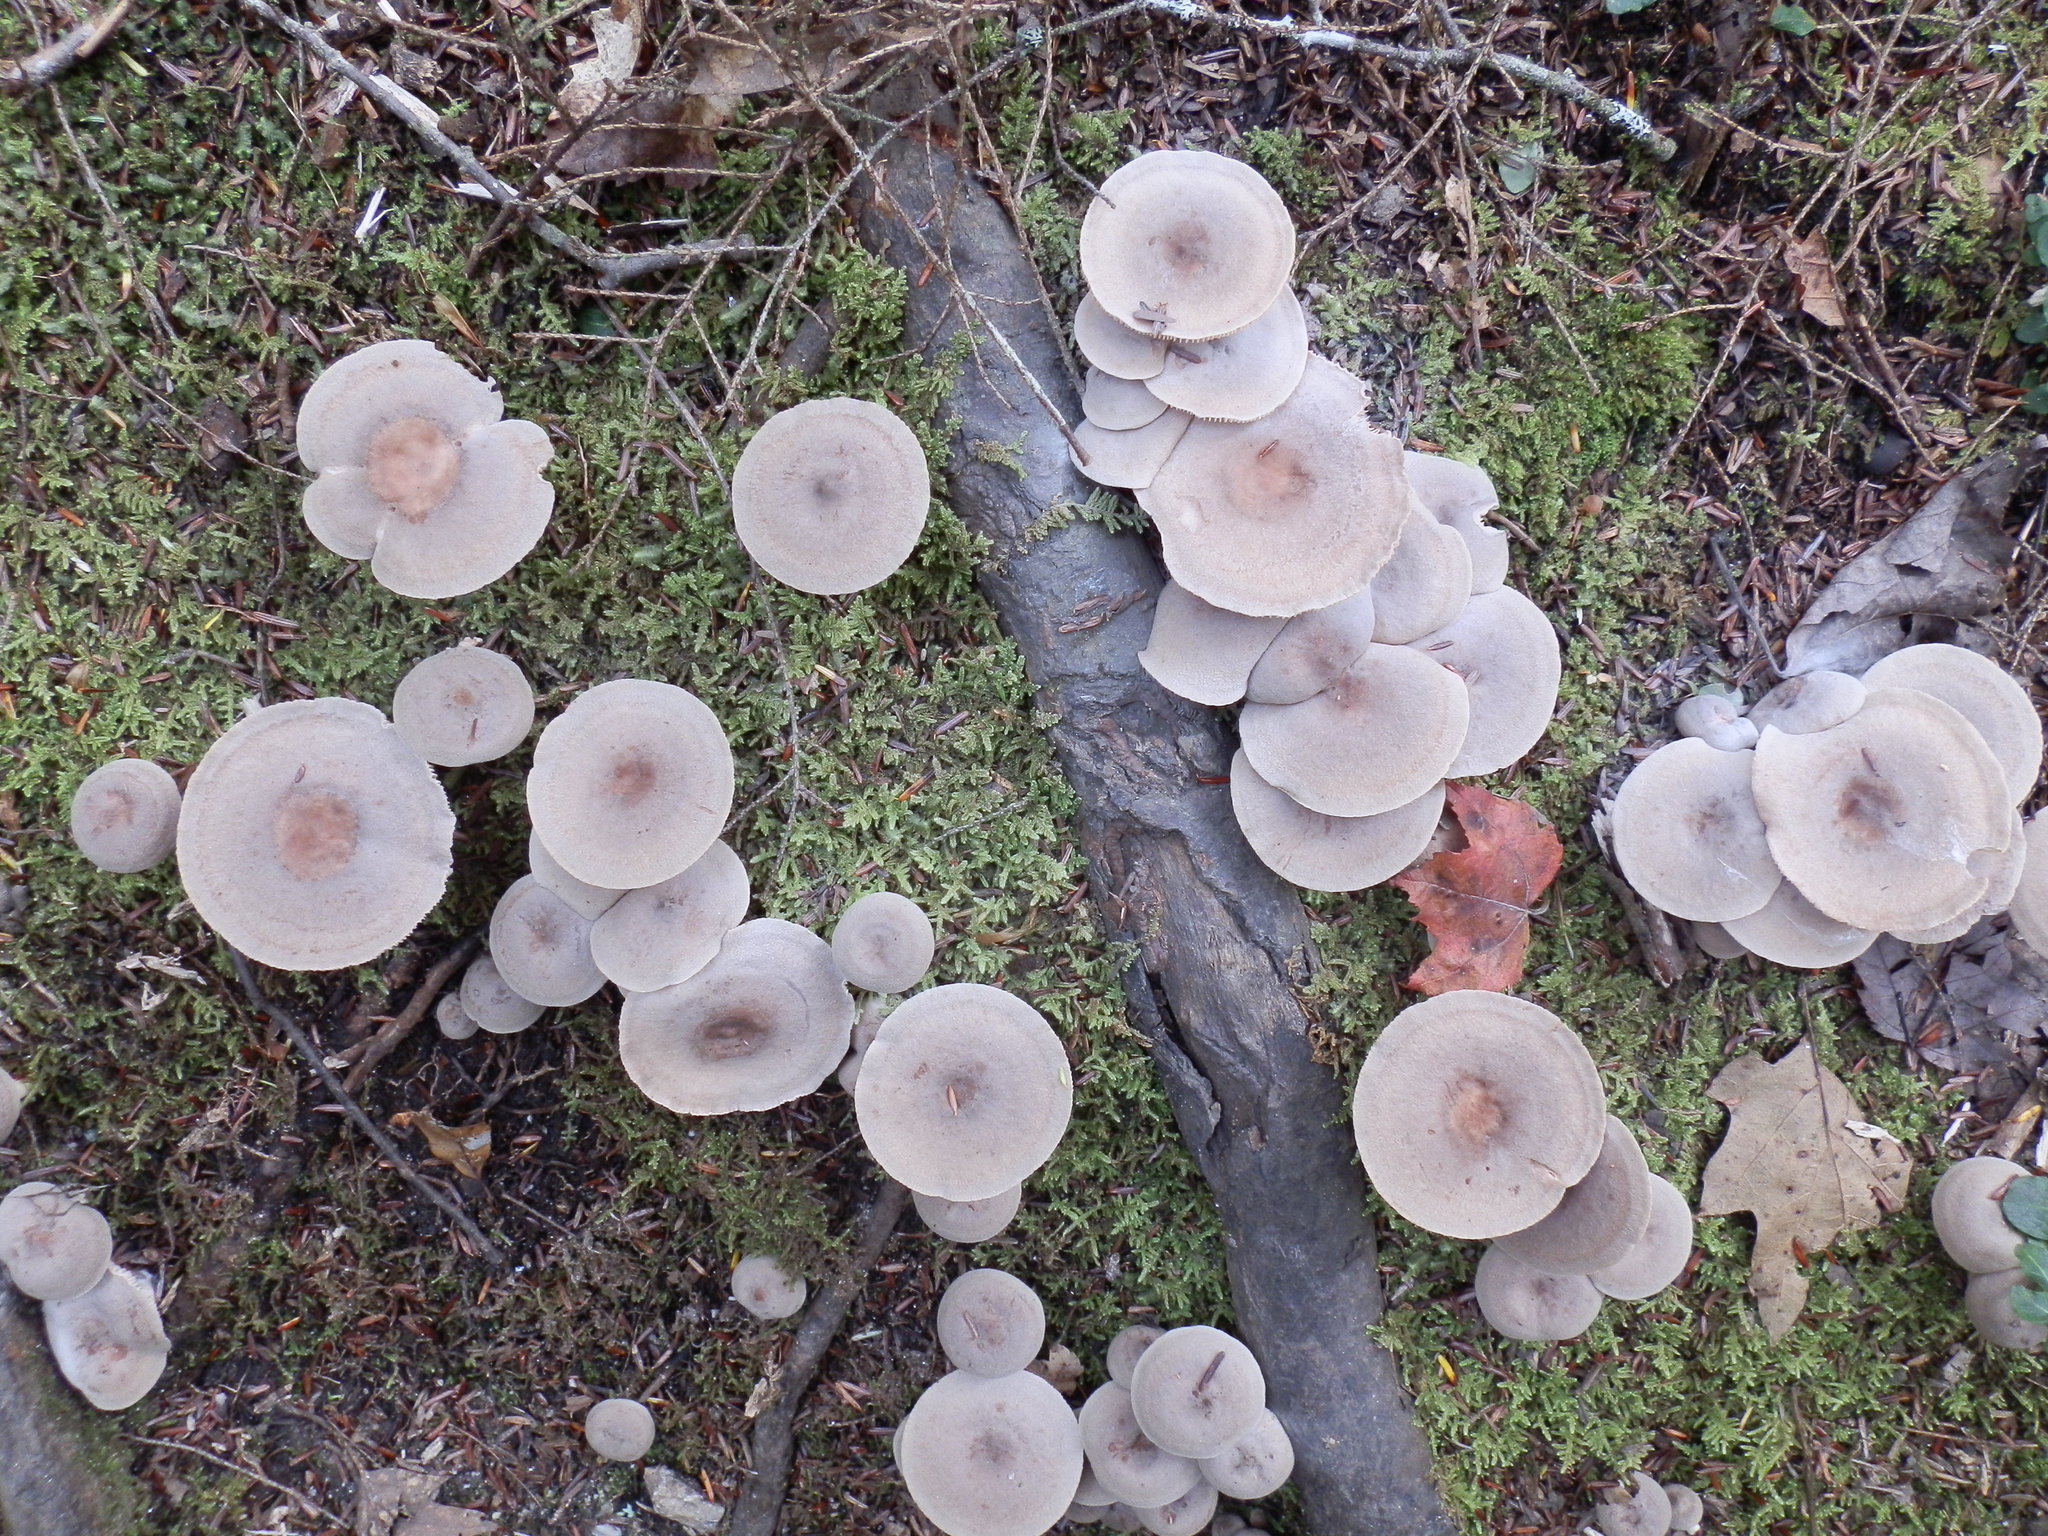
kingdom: Fungi
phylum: Basidiomycota
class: Agaricomycetes
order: Russulales
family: Russulaceae
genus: Lactarius
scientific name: Lactarius mammosus
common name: Pap milkcap
